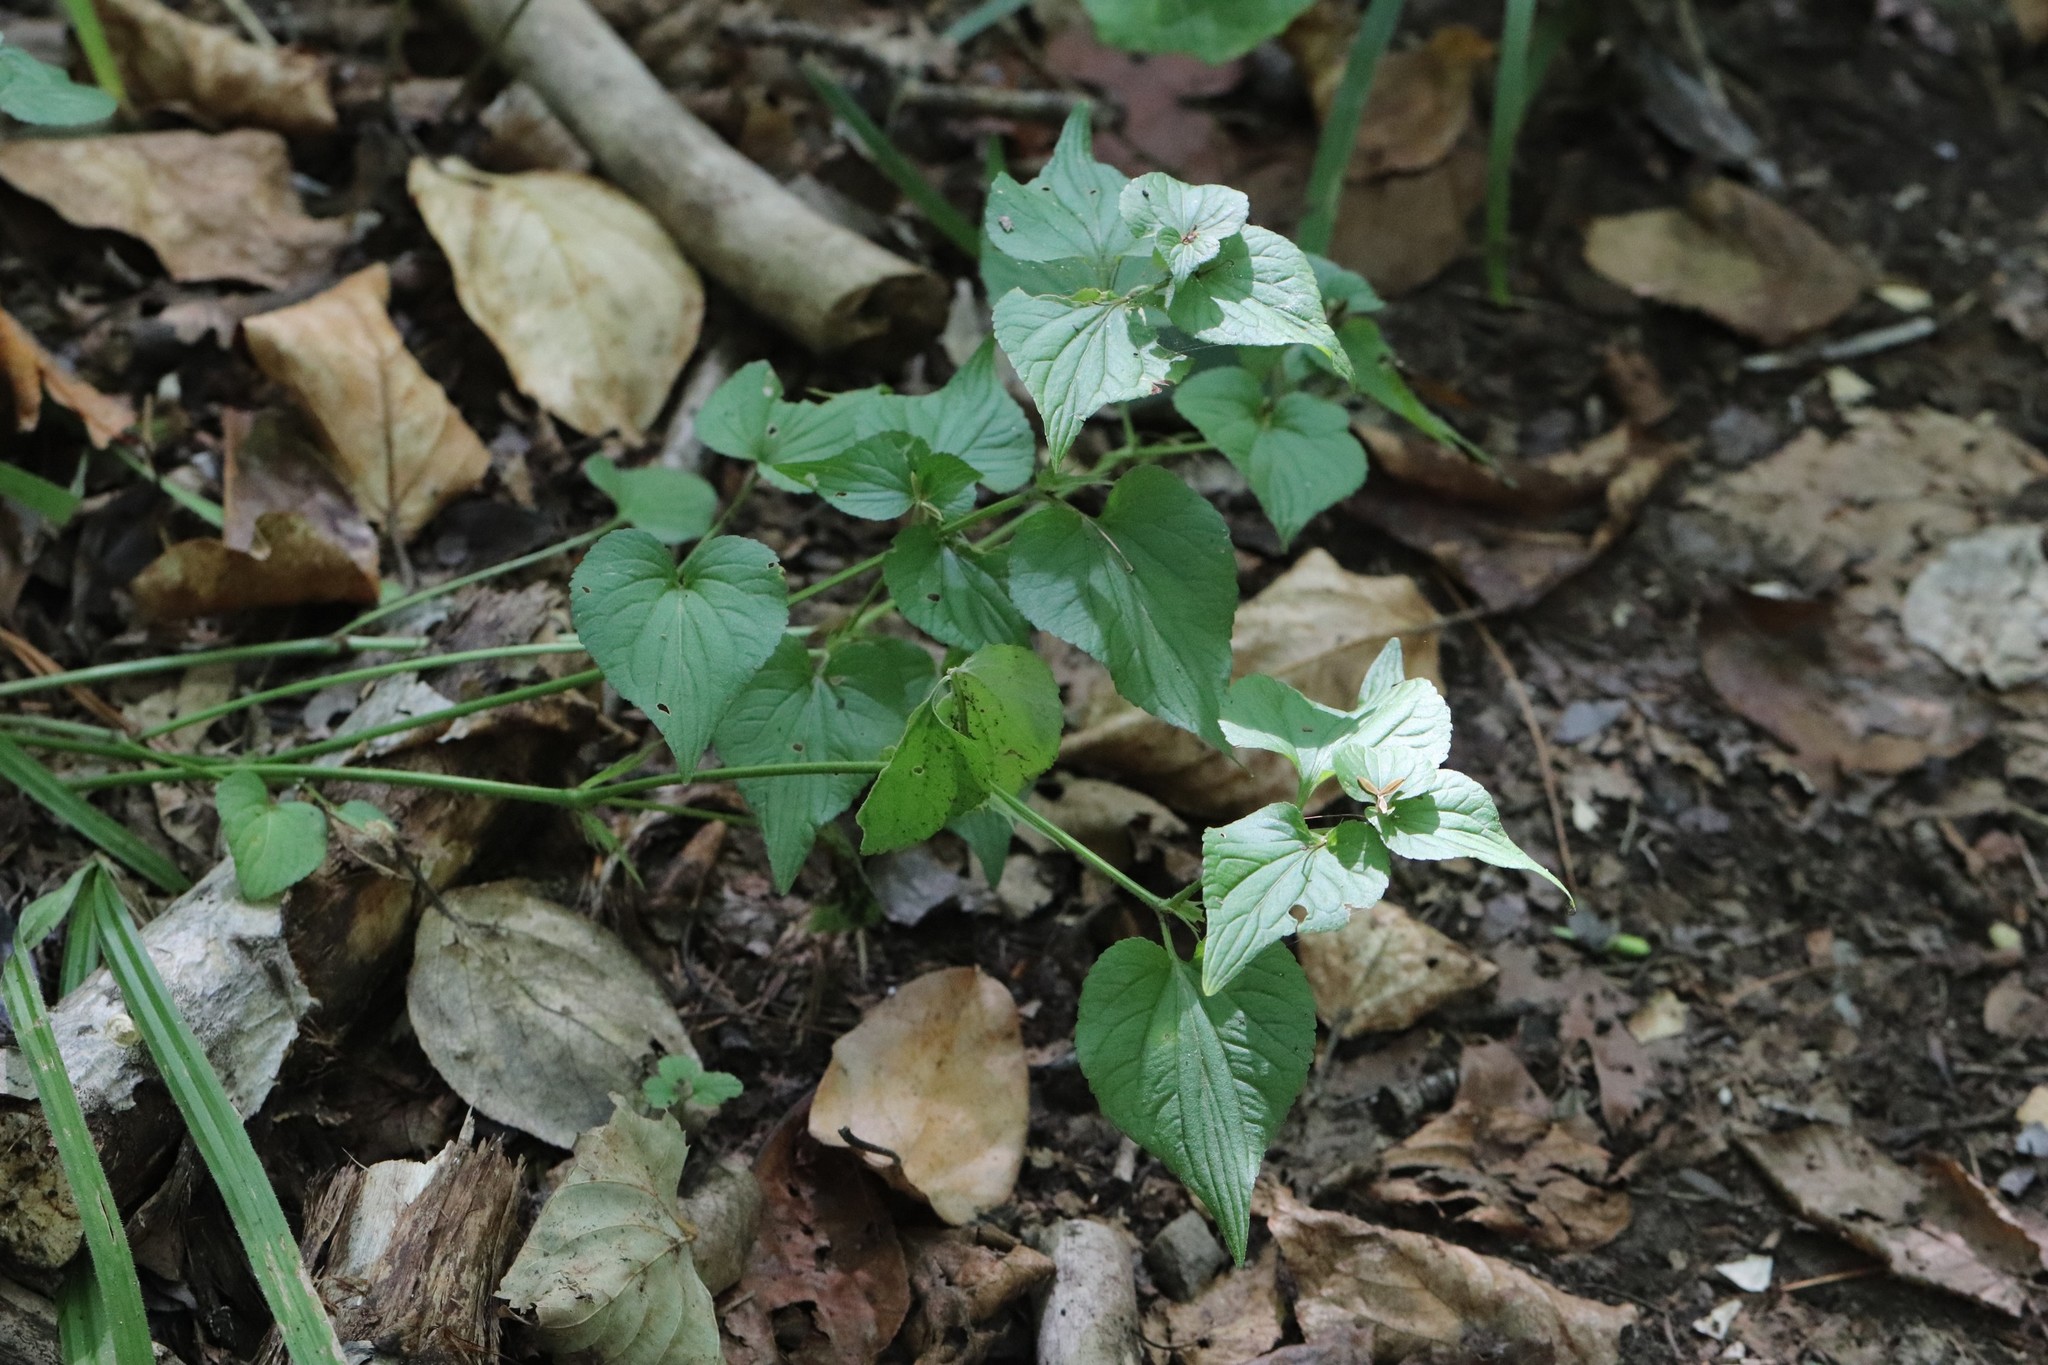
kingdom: Plantae
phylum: Tracheophyta
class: Magnoliopsida
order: Malpighiales
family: Violaceae
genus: Viola
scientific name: Viola acuminata
